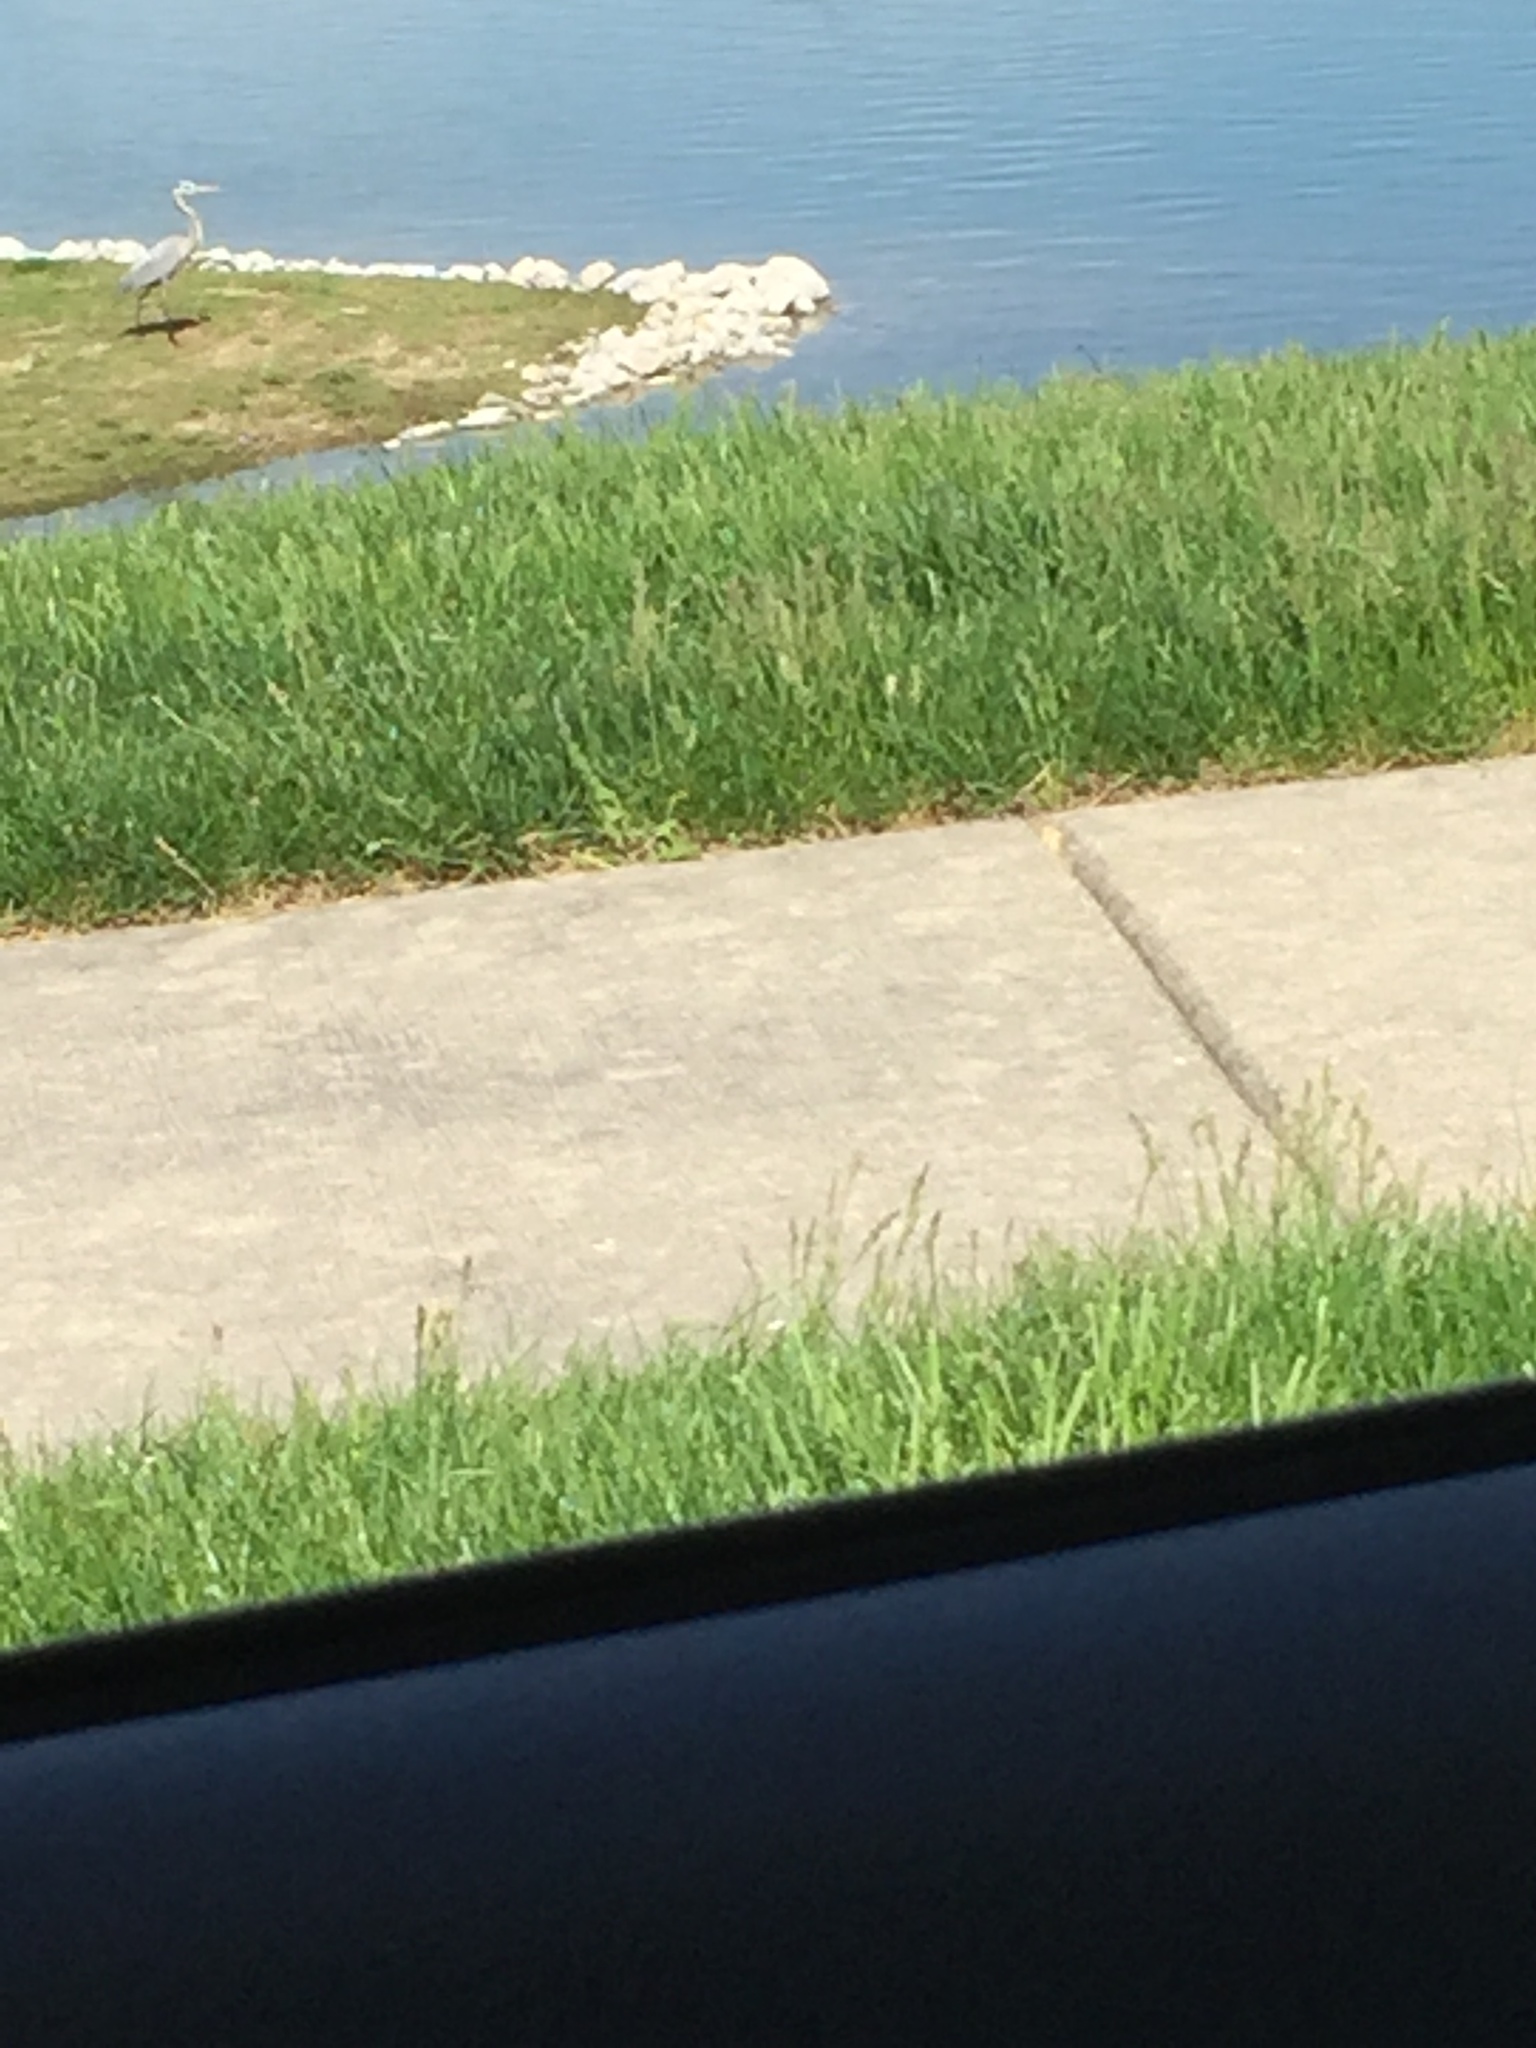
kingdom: Animalia
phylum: Chordata
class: Aves
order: Pelecaniformes
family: Ardeidae
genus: Ardea
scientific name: Ardea herodias
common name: Great blue heron
